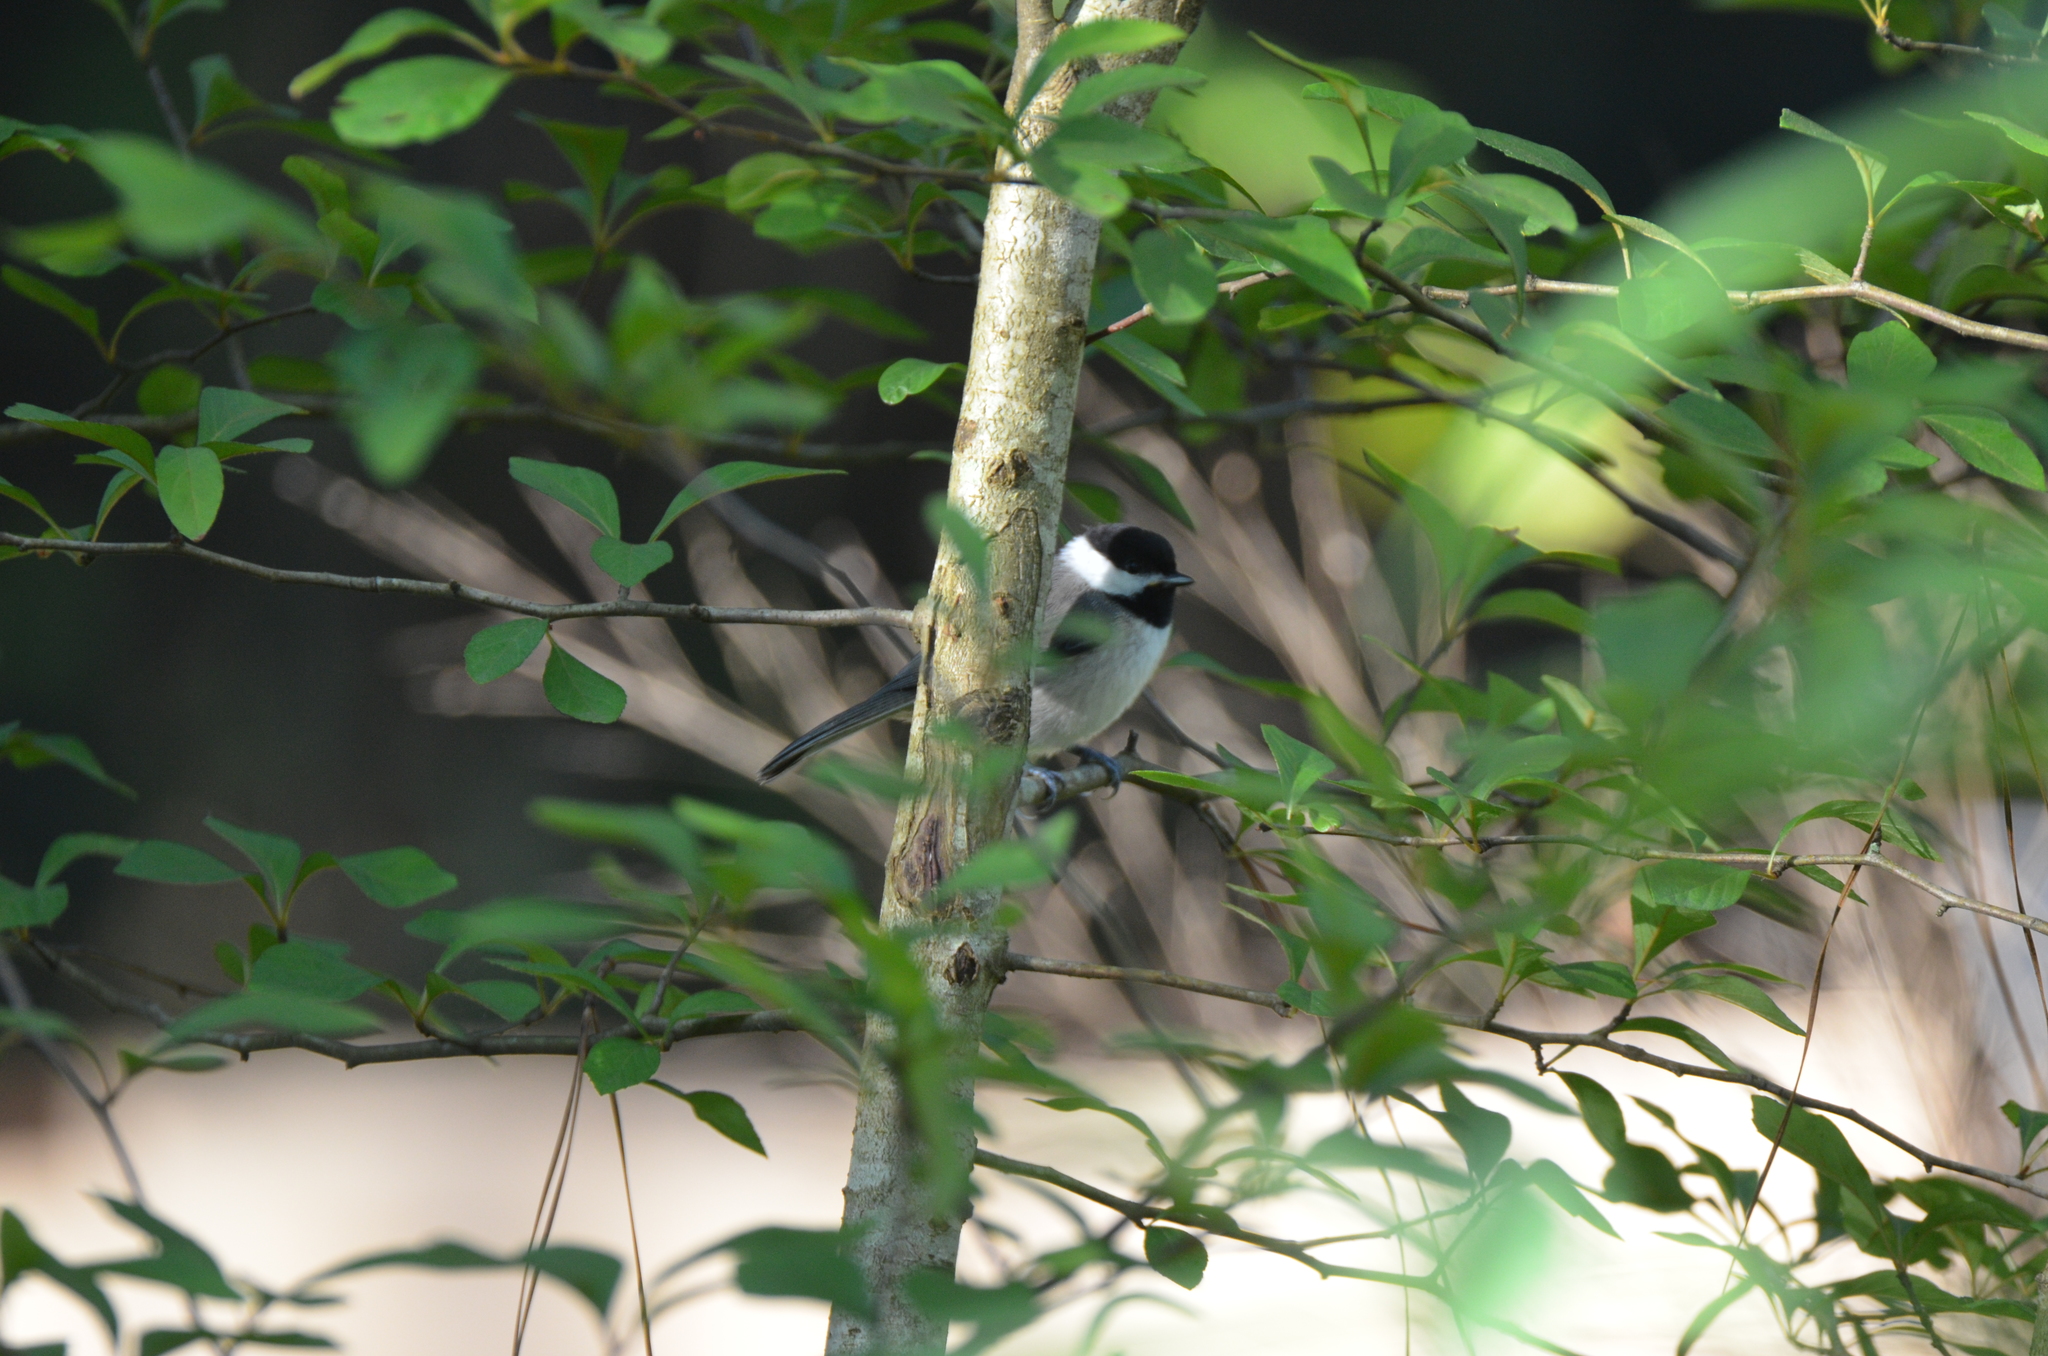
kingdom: Animalia
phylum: Chordata
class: Aves
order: Passeriformes
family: Paridae
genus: Poecile
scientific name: Poecile carolinensis
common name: Carolina chickadee
